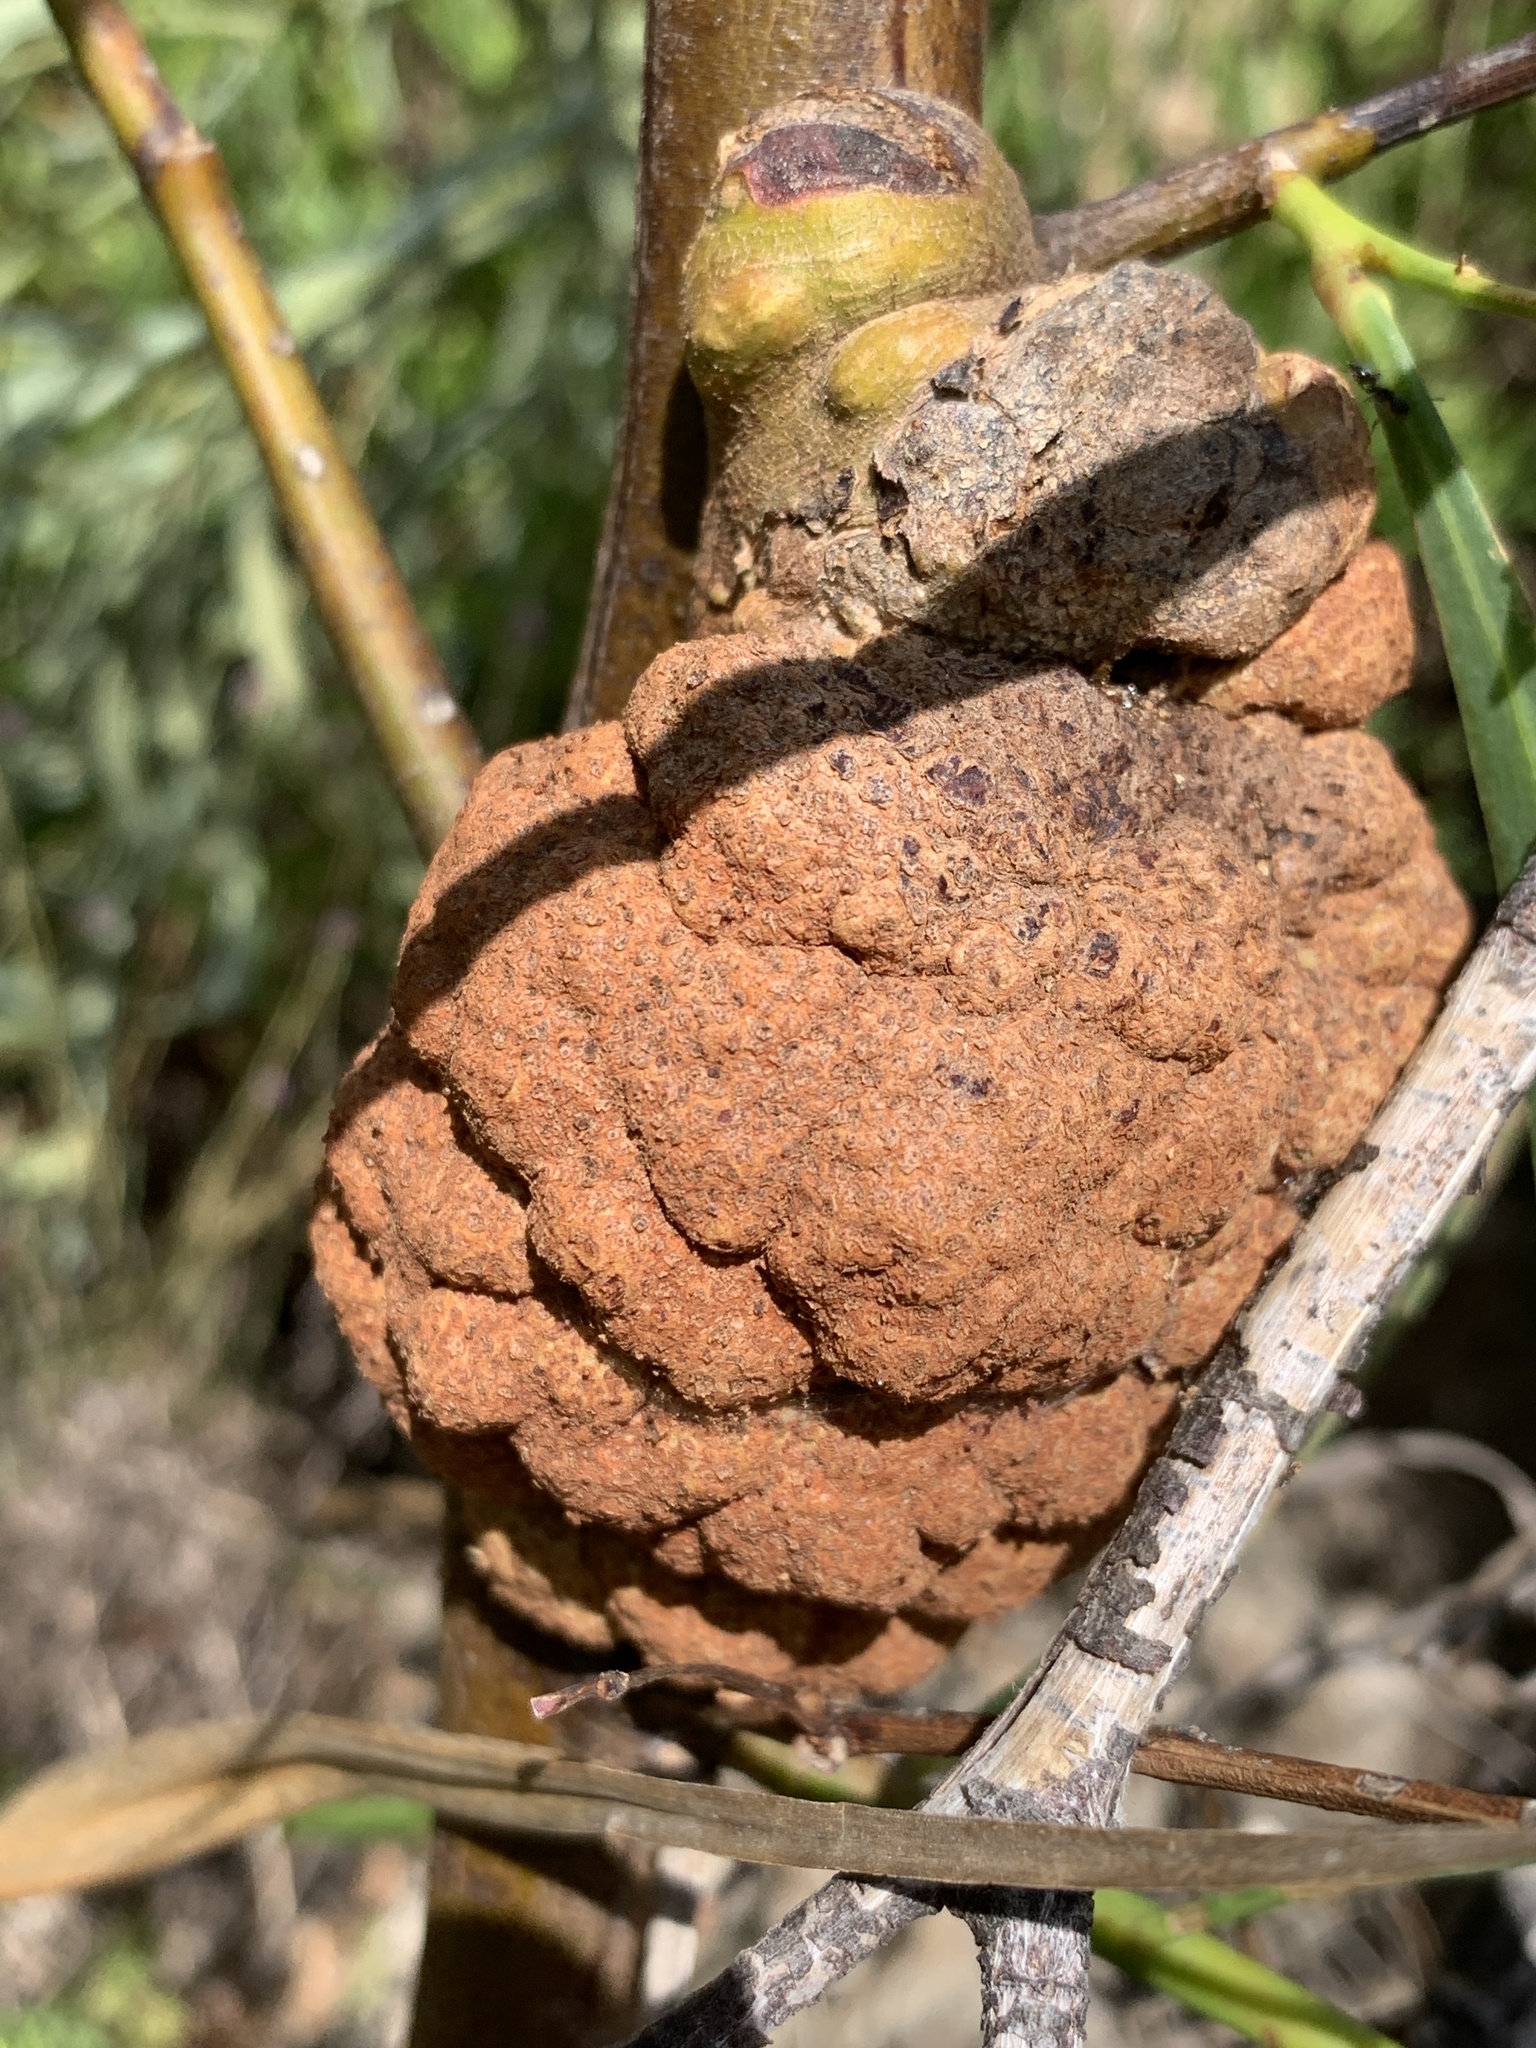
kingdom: Fungi
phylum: Basidiomycota
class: Pucciniomycetes
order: Pucciniales
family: Uromycladiaceae
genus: Uromycladium
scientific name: Uromycladium morrisii
